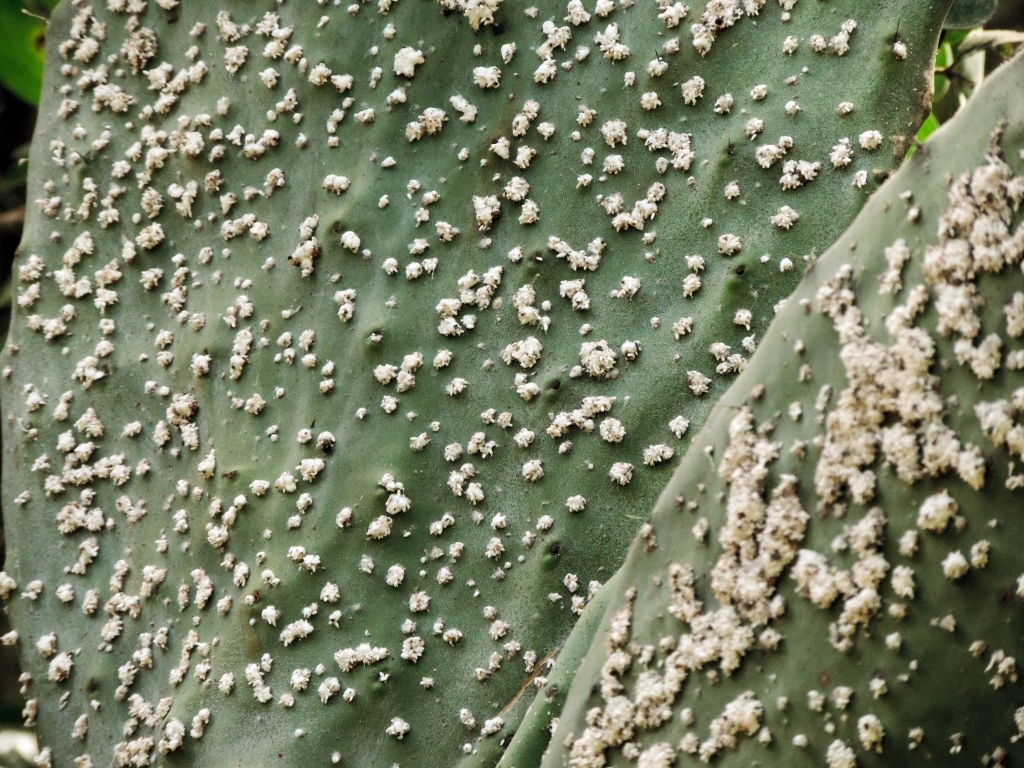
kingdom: Animalia
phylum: Arthropoda
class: Insecta
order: Hemiptera
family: Dactylopiidae
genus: Dactylopius
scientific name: Dactylopius opuntiae
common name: Opuntia cochineal scale
